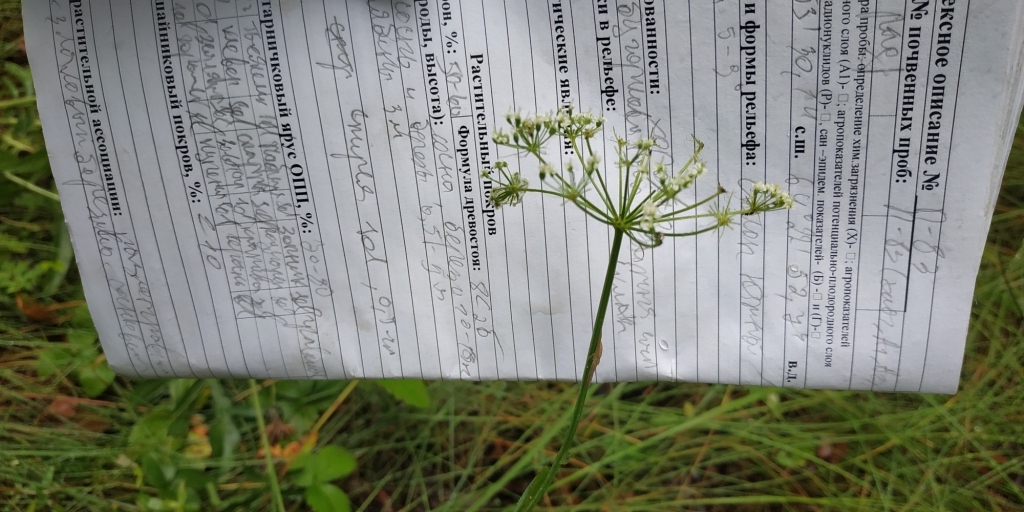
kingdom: Plantae
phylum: Tracheophyta
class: Magnoliopsida
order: Apiales
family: Apiaceae
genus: Kadenia
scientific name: Kadenia dubia
